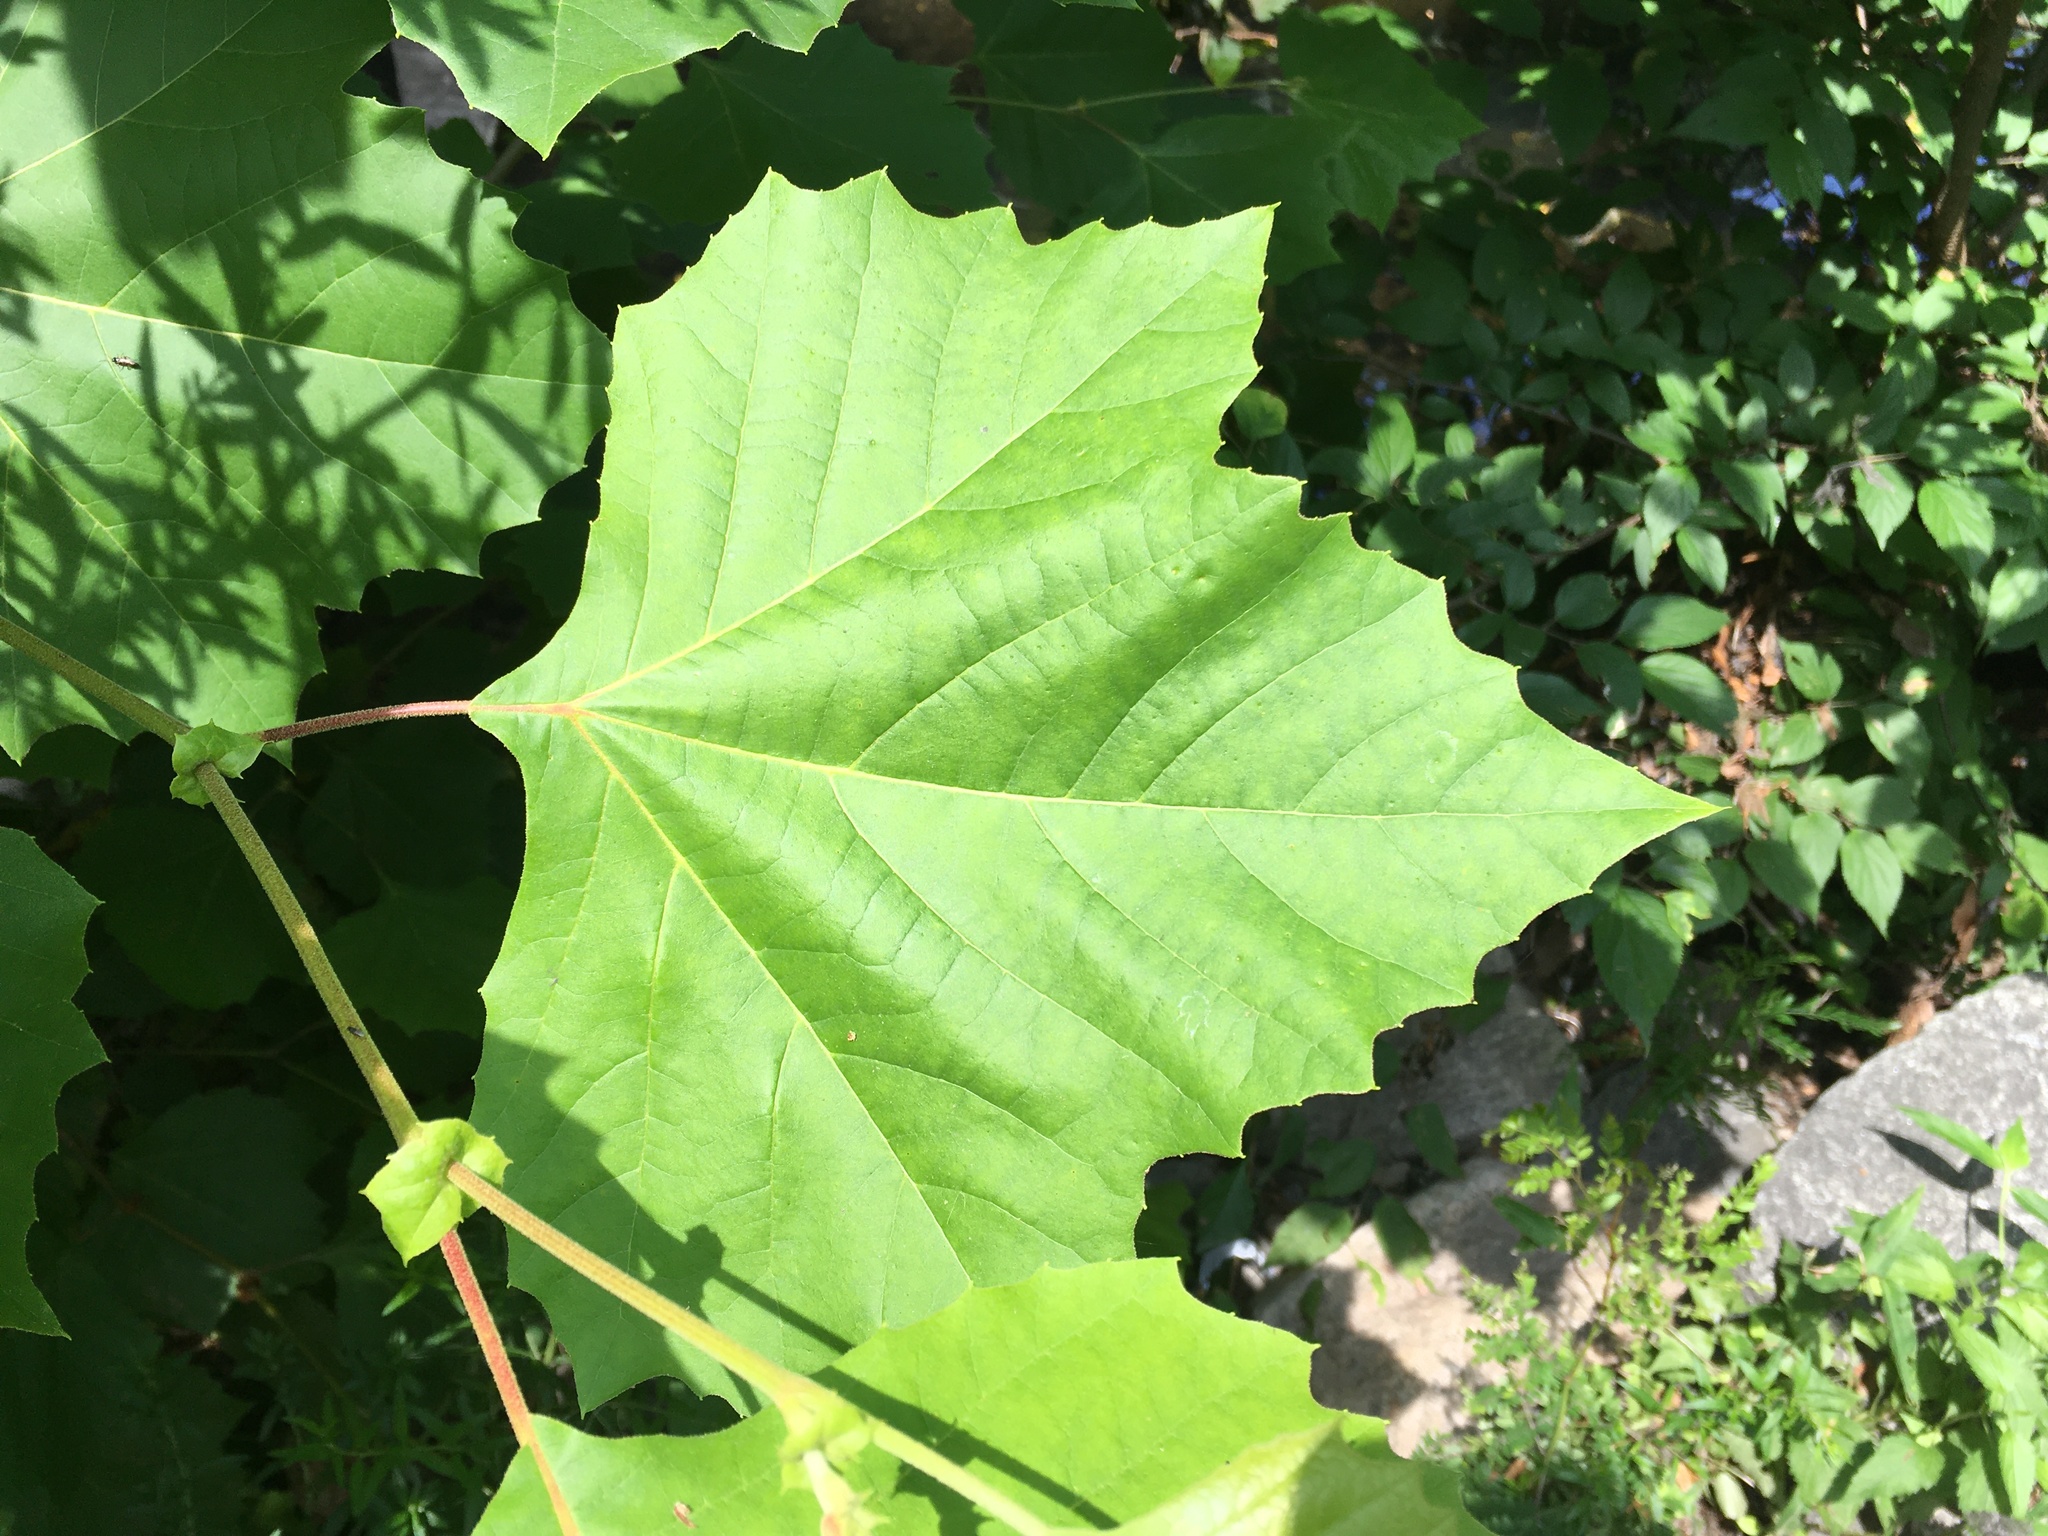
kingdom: Plantae
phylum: Tracheophyta
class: Magnoliopsida
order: Proteales
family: Platanaceae
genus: Platanus
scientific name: Platanus occidentalis
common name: American sycamore
